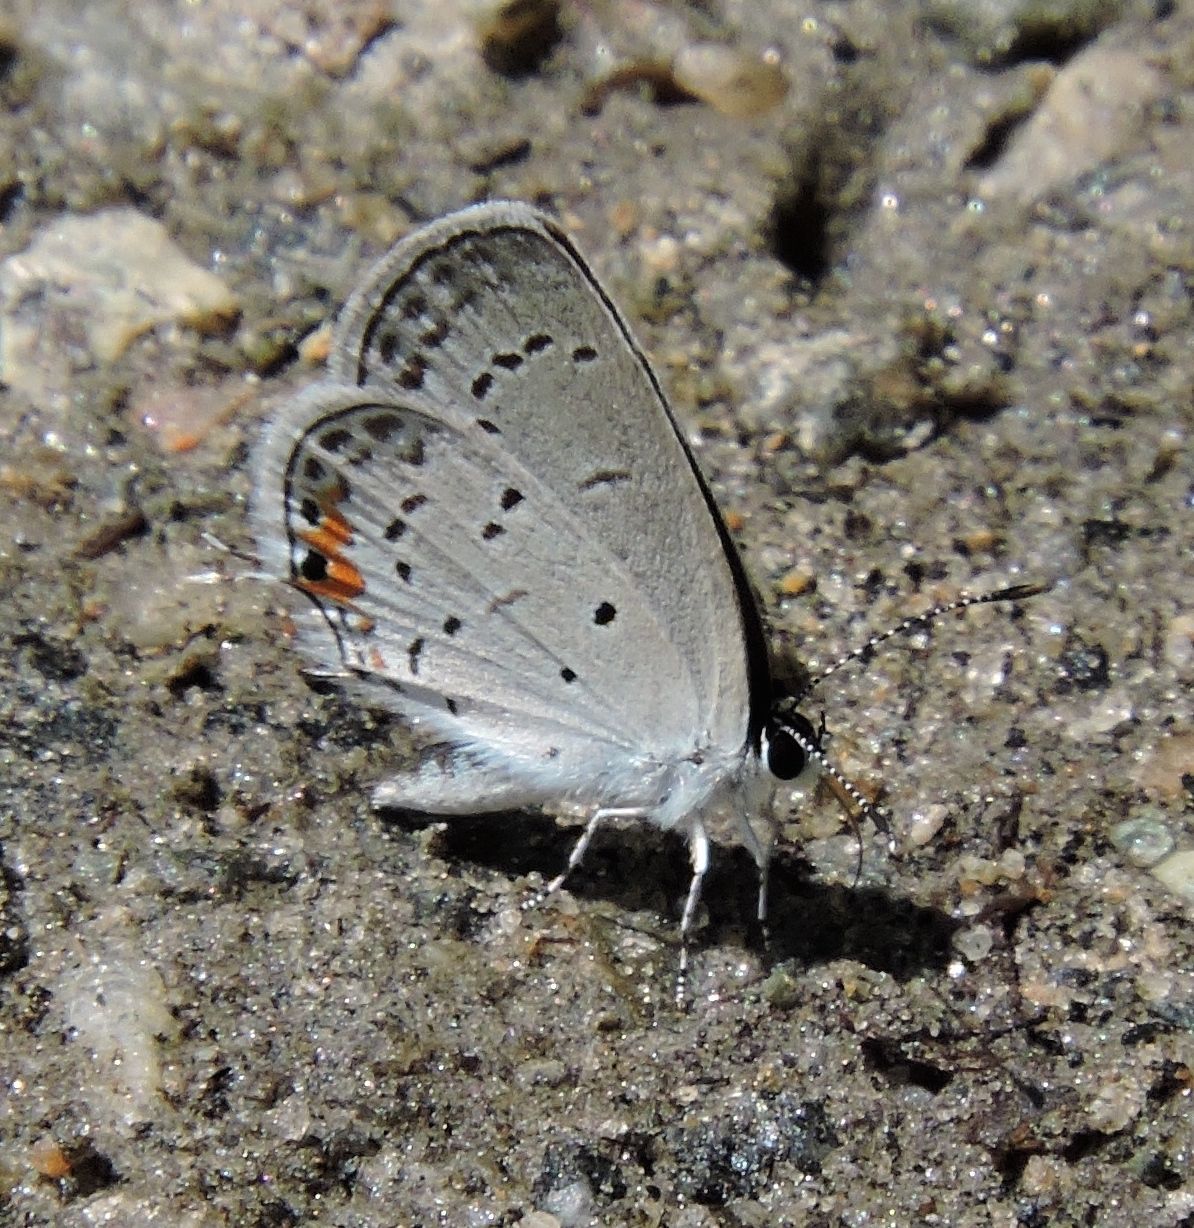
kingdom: Animalia
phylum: Arthropoda
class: Insecta
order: Lepidoptera
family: Lycaenidae
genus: Elkalyce
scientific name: Elkalyce comyntas
